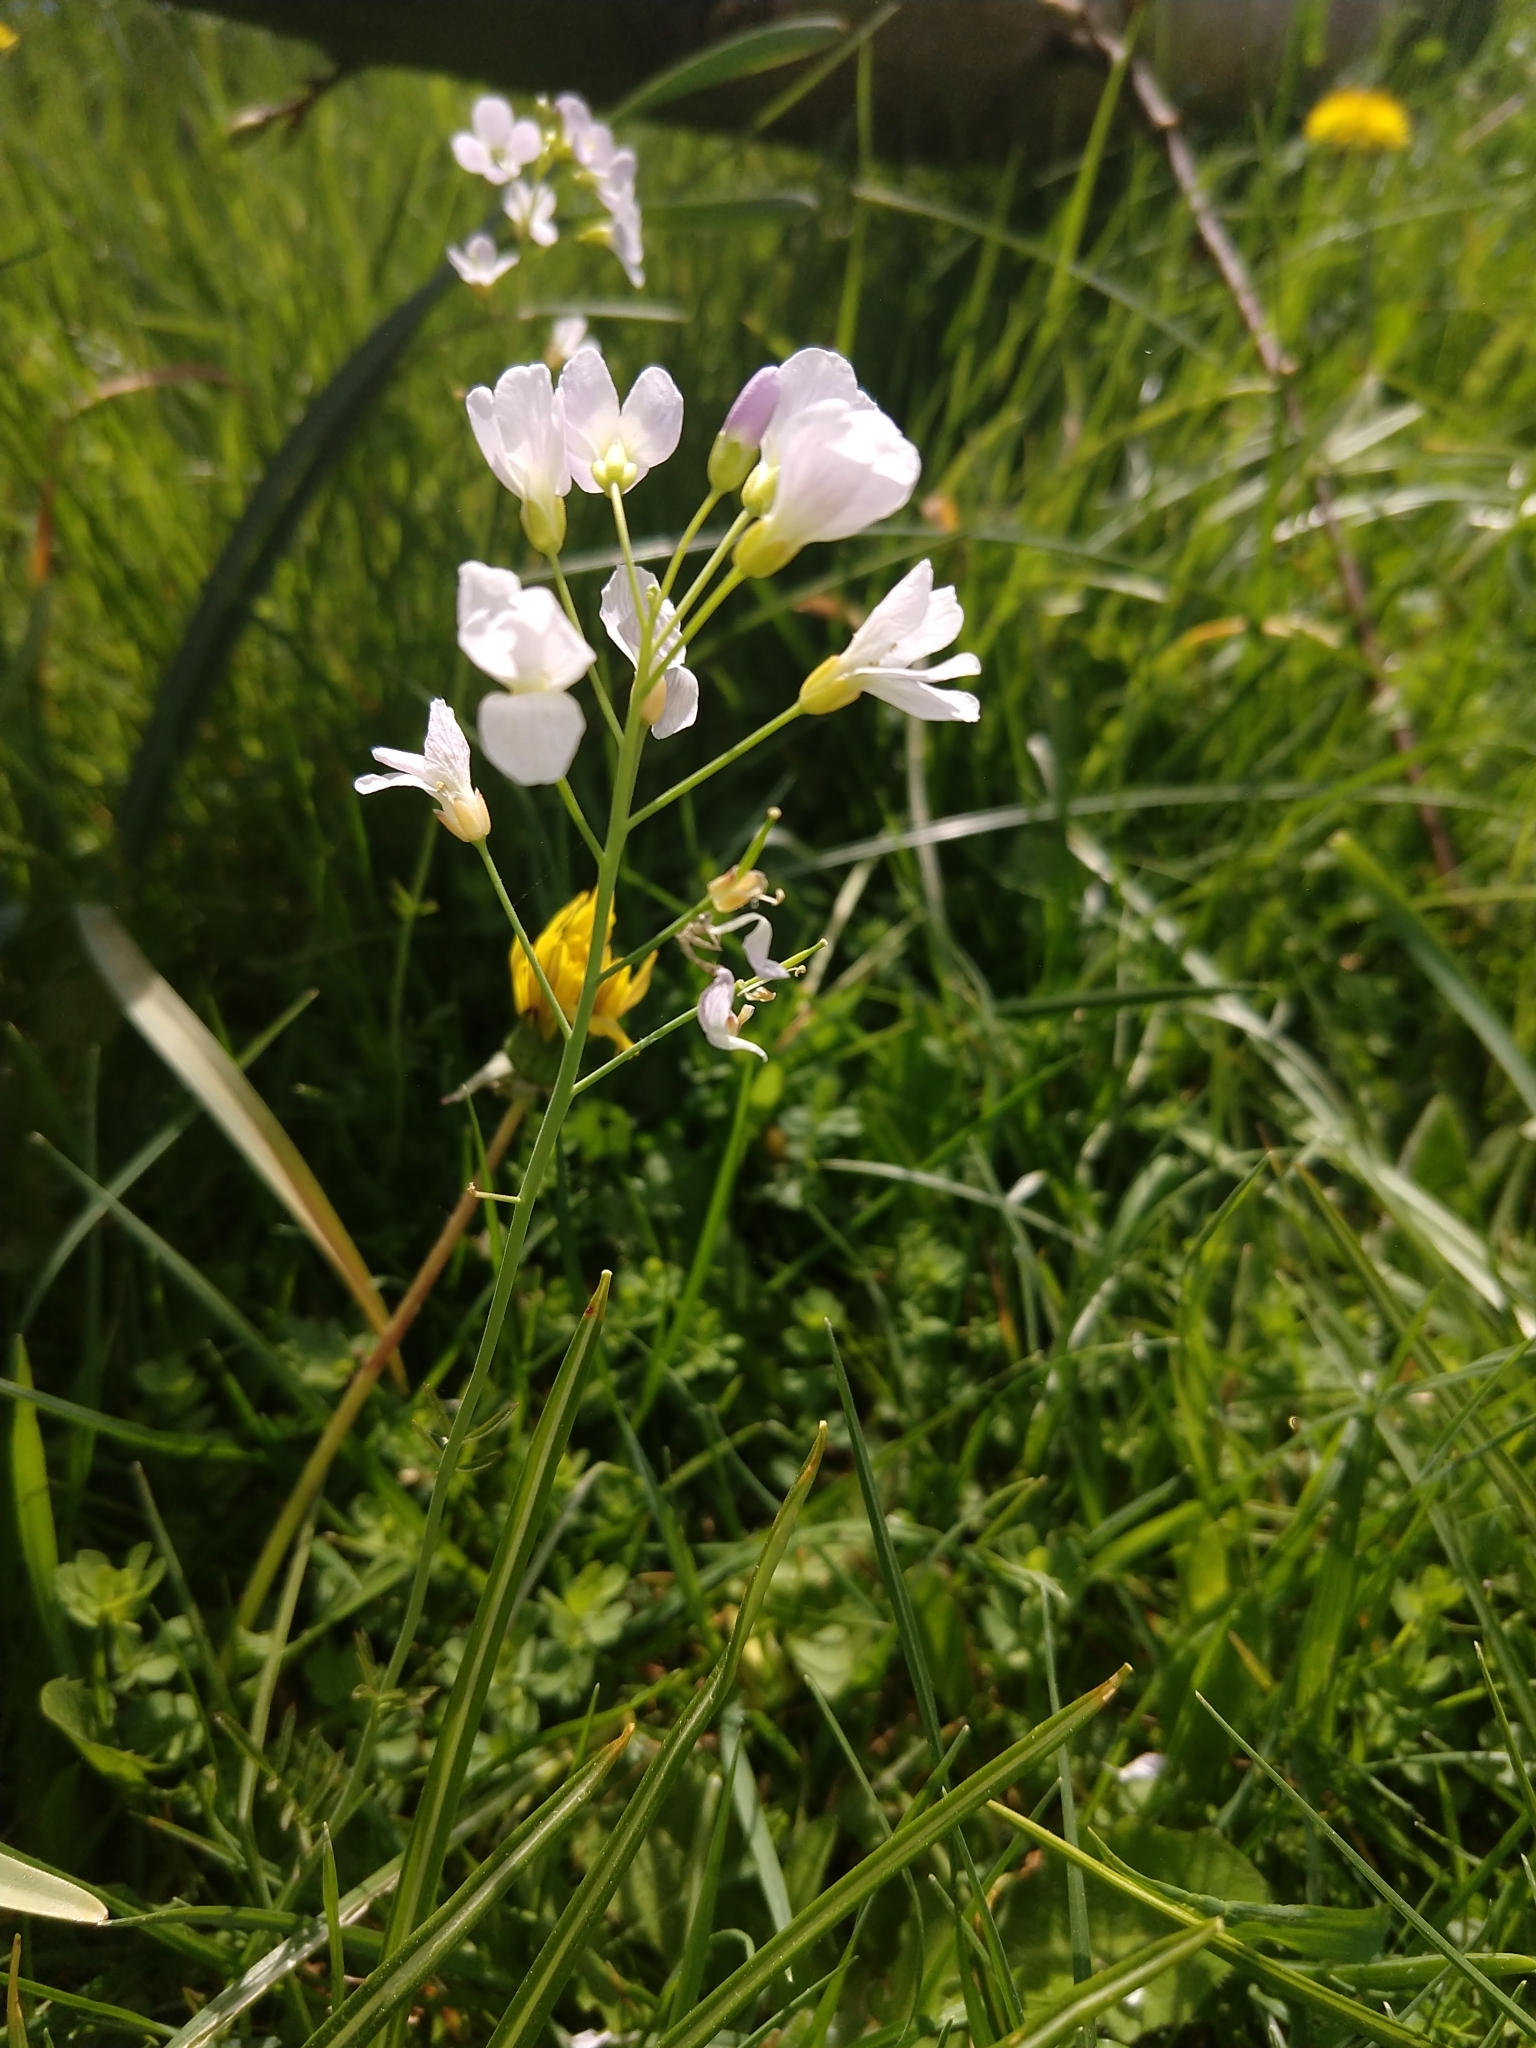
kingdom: Plantae
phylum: Tracheophyta
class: Magnoliopsida
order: Brassicales
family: Brassicaceae
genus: Cardamine
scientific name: Cardamine pratensis
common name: Cuckoo flower
